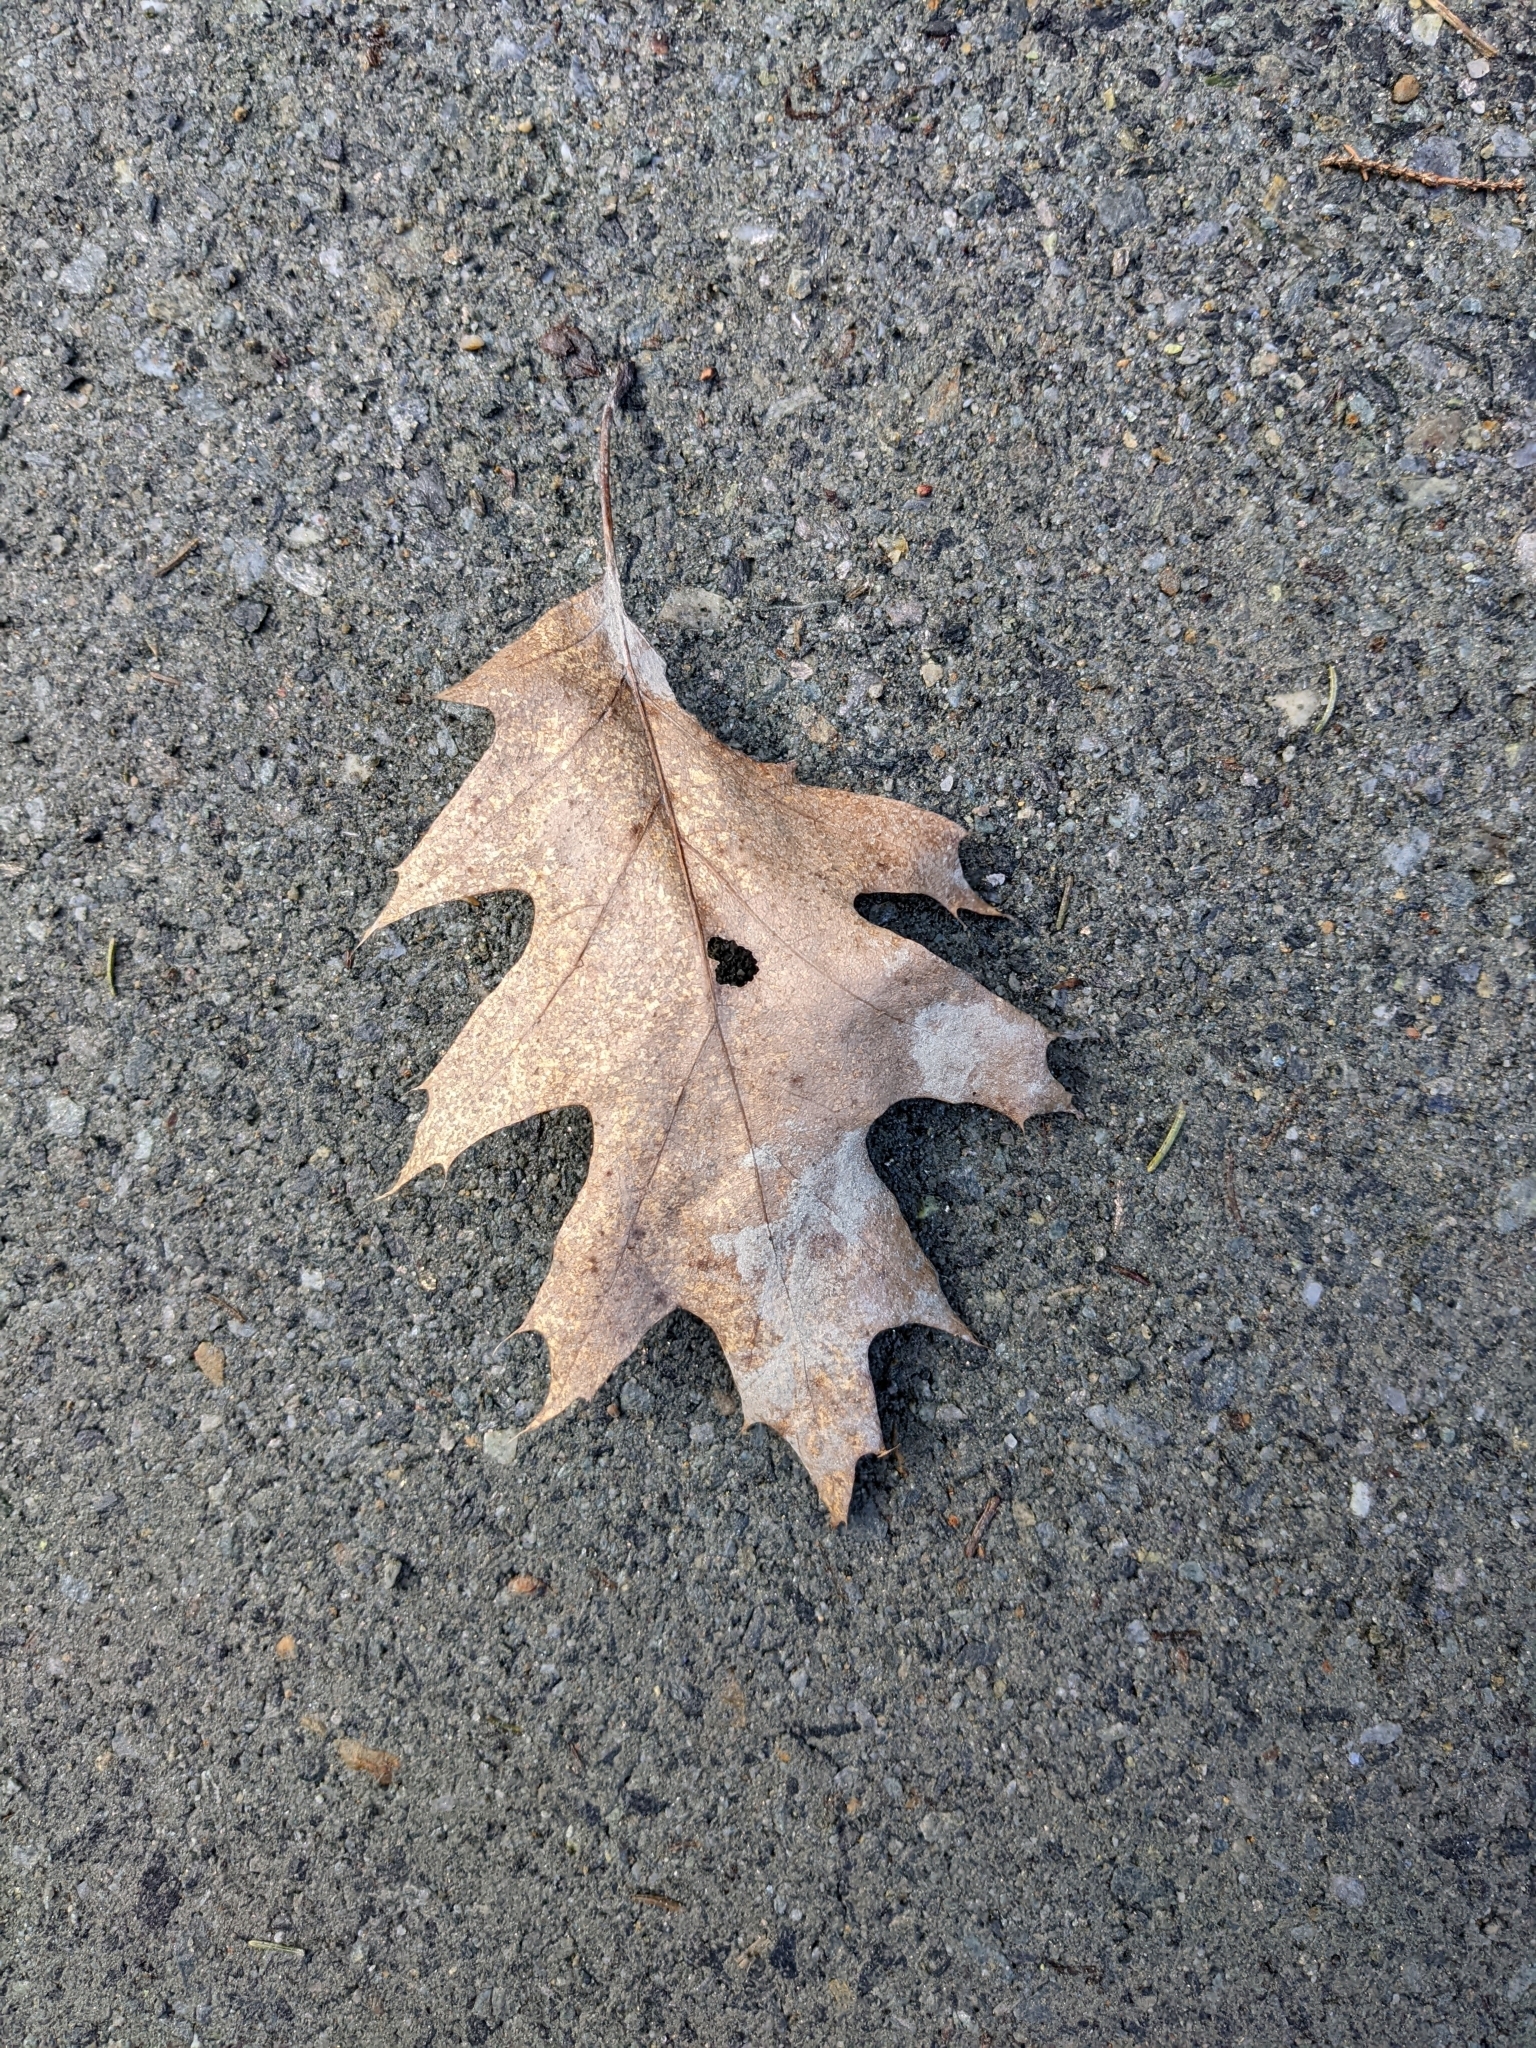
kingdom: Plantae
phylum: Tracheophyta
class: Magnoliopsida
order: Fagales
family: Fagaceae
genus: Quercus
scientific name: Quercus rubra
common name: Red oak
